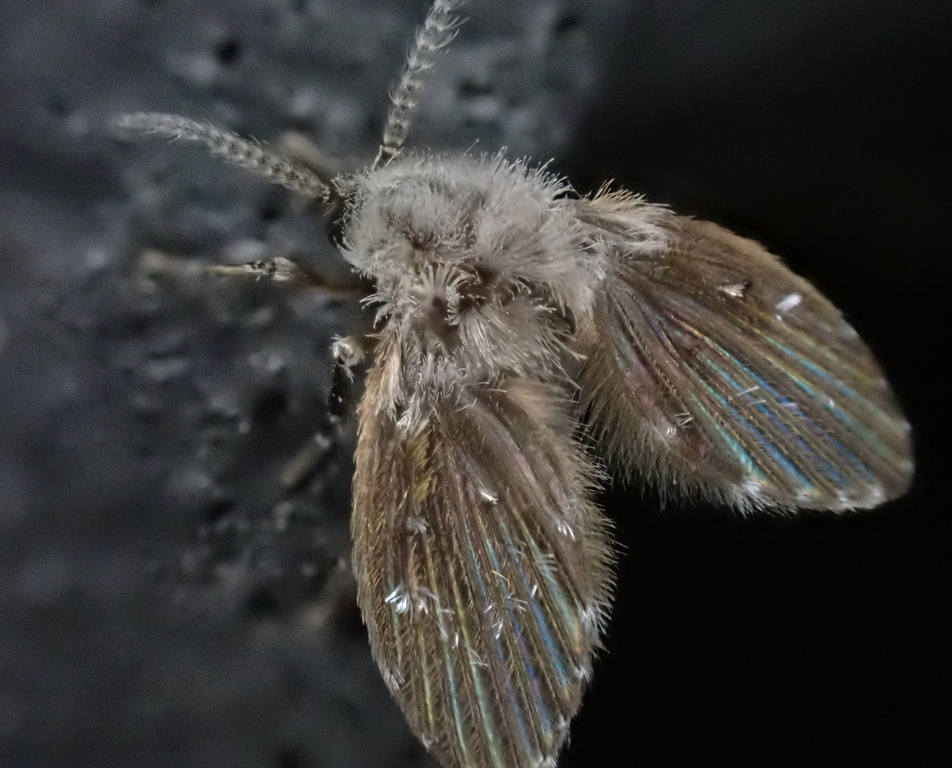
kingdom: Animalia
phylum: Arthropoda
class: Insecta
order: Diptera
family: Psychodidae
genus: Clogmia
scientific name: Clogmia albipunctatus
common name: White-spotted moth fly
